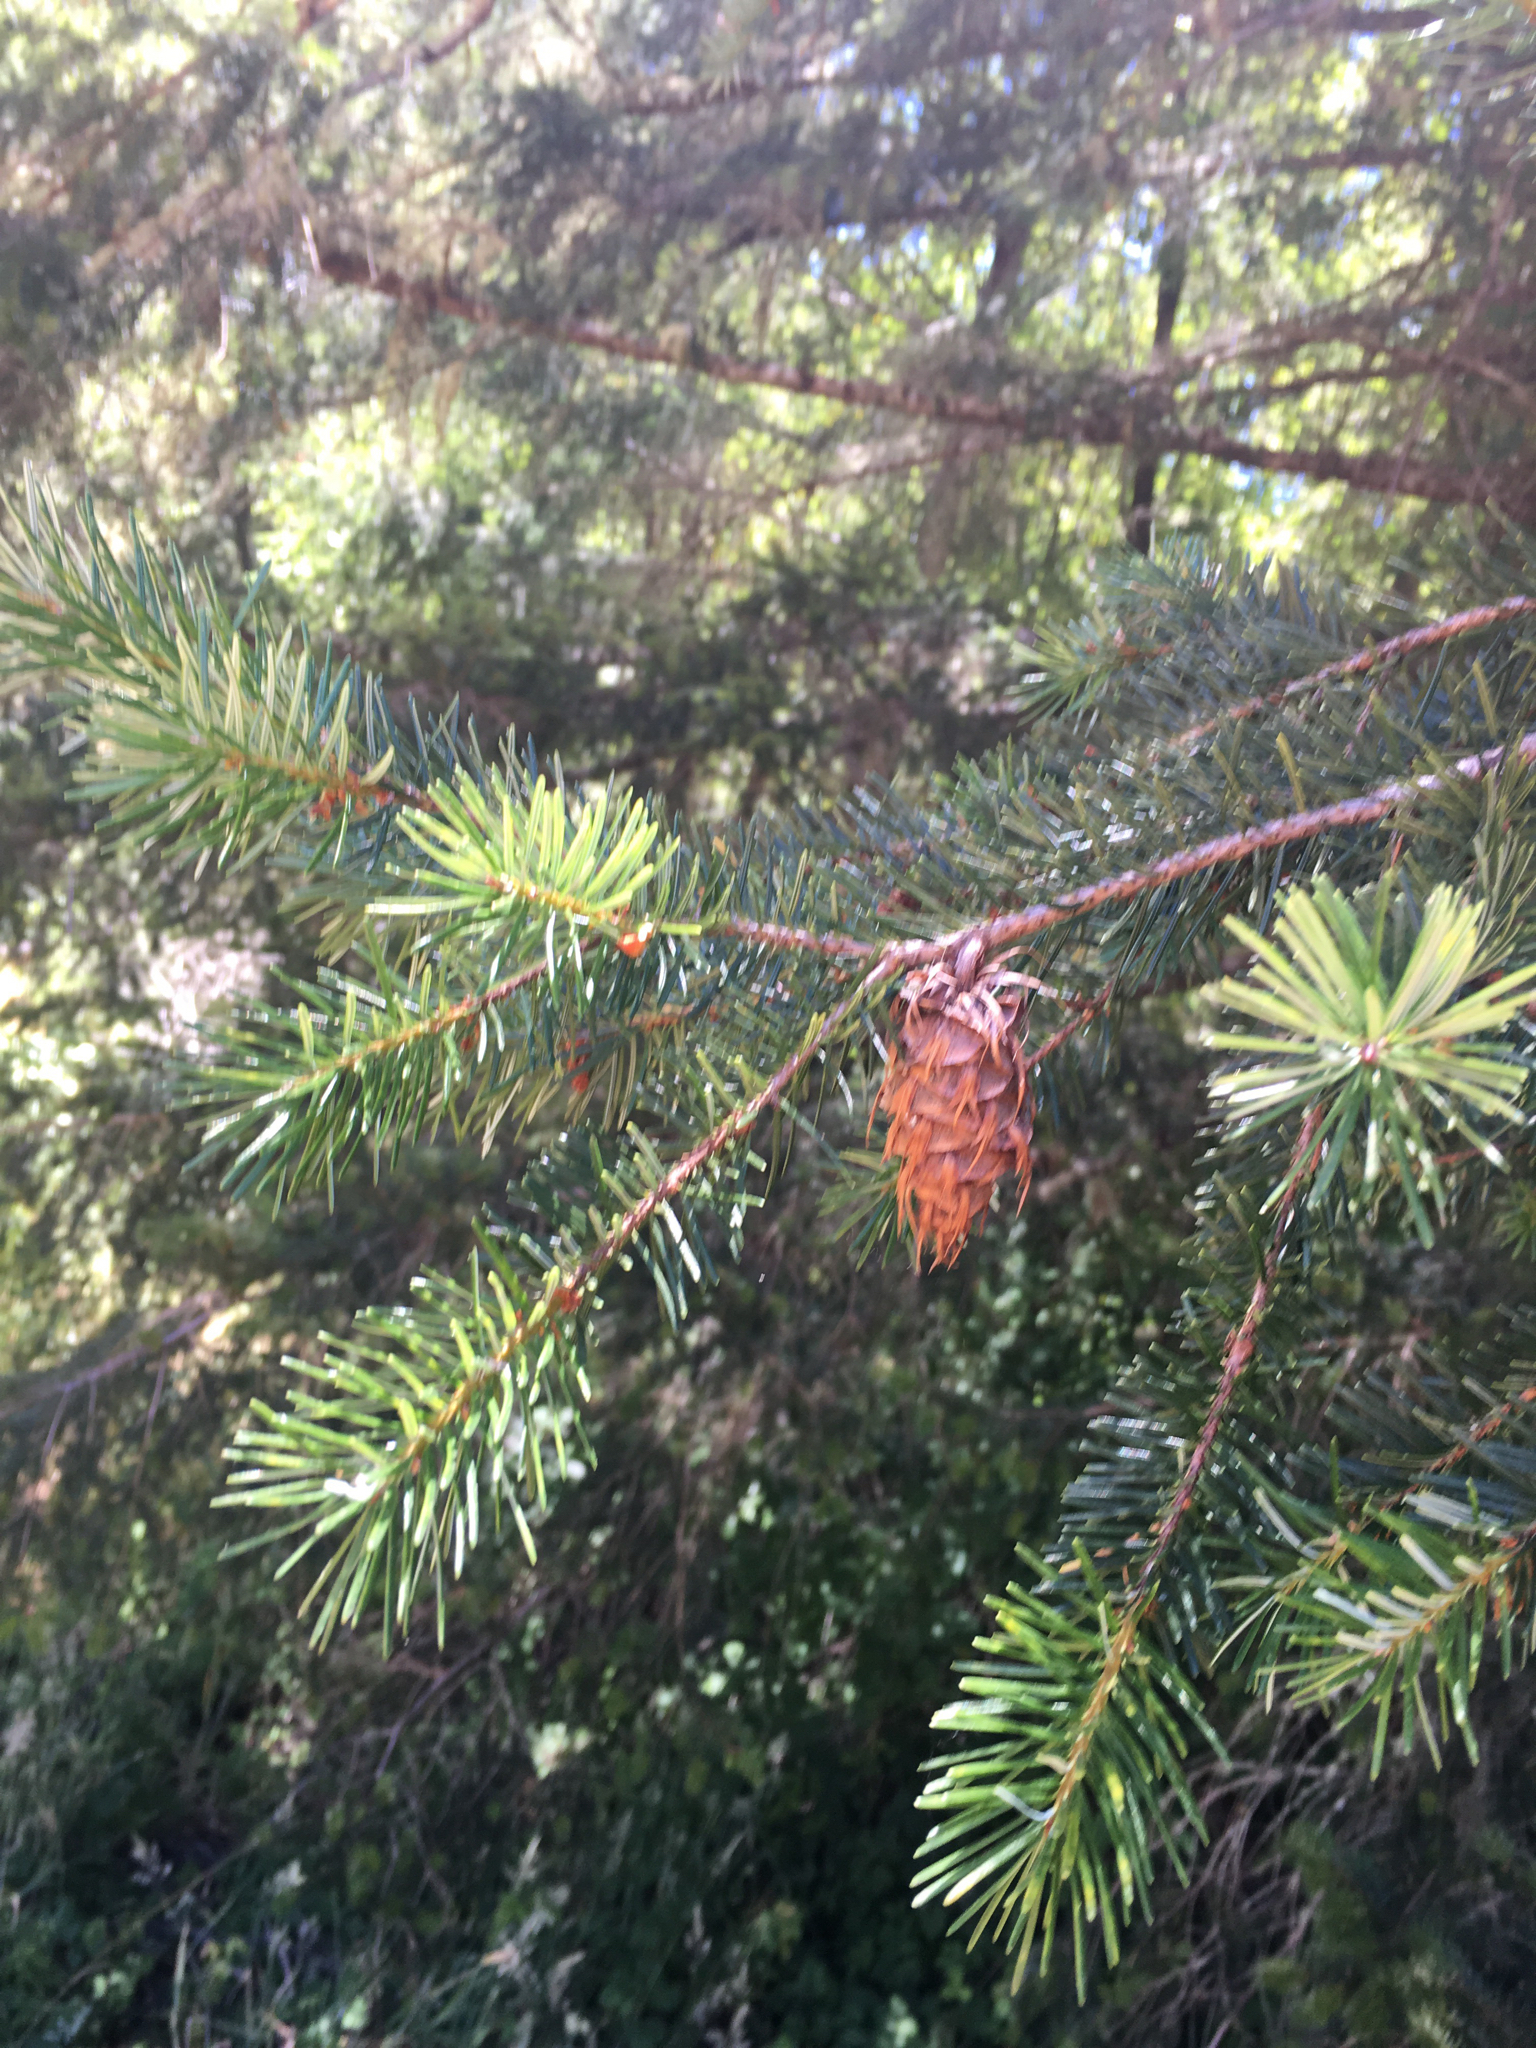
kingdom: Plantae
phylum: Tracheophyta
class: Pinopsida
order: Pinales
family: Pinaceae
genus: Pseudotsuga
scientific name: Pseudotsuga menziesii
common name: Douglas fir
